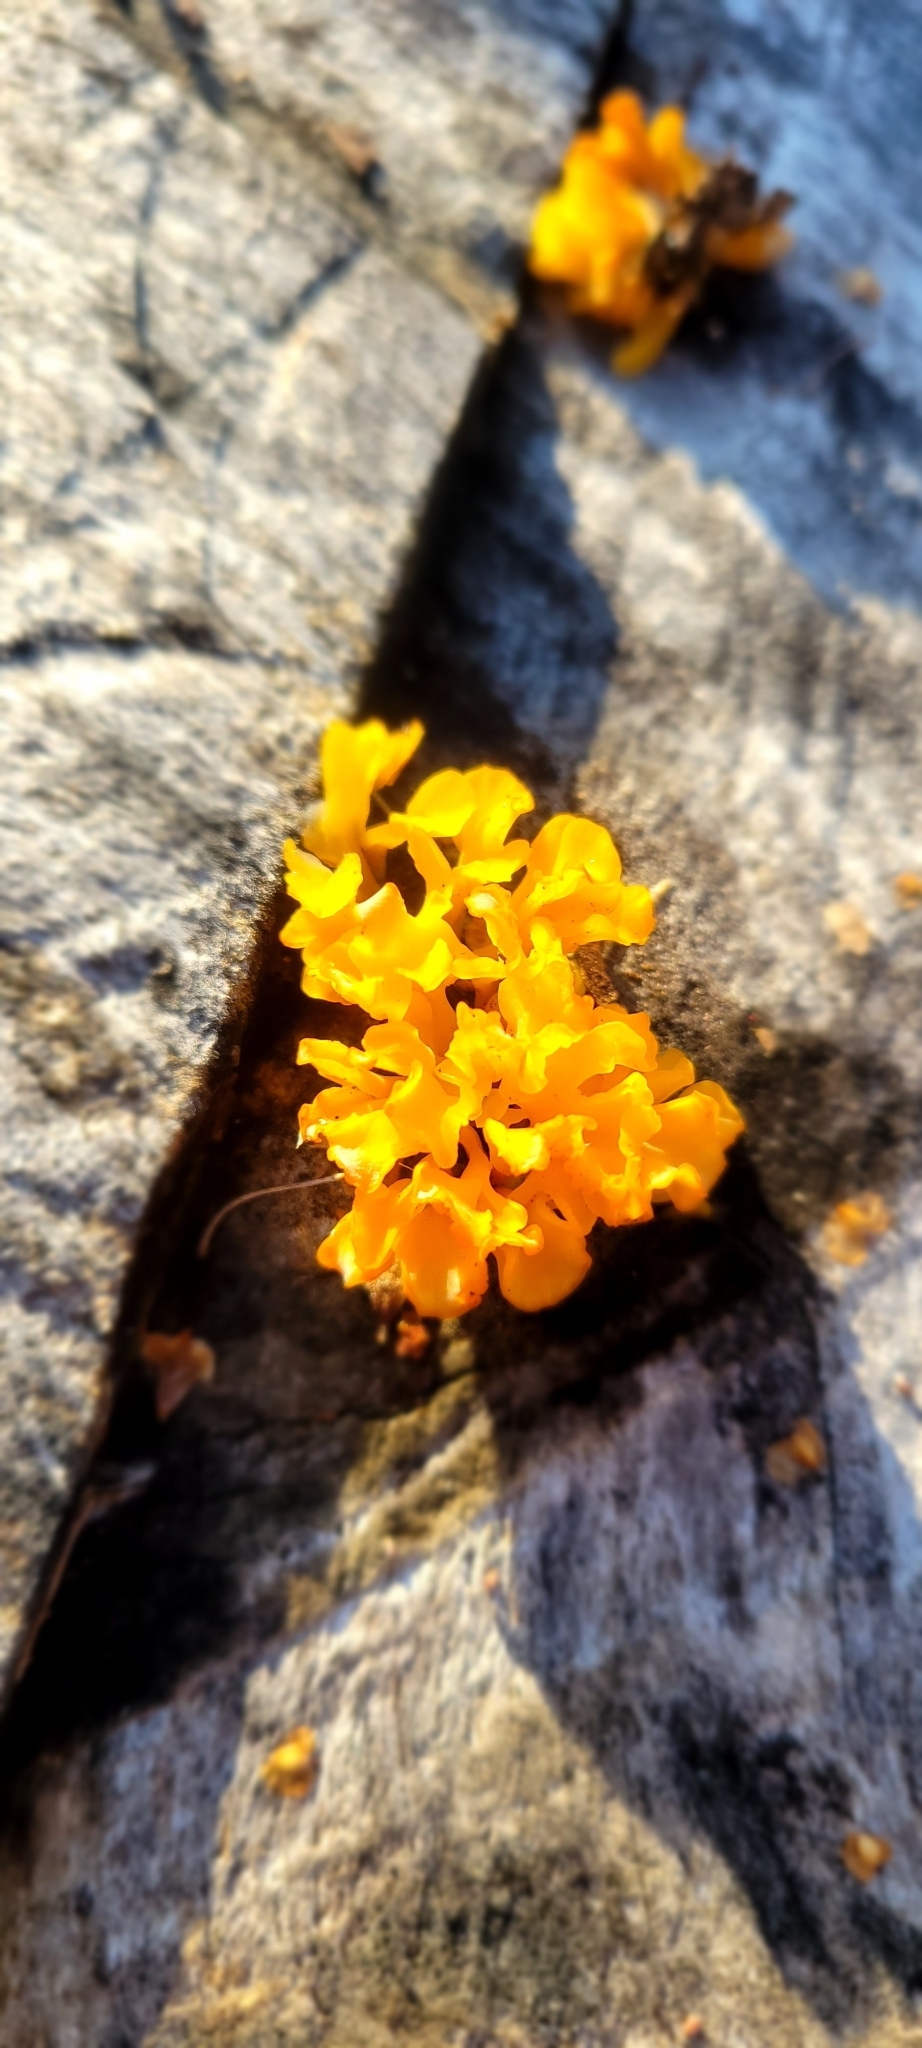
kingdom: Fungi
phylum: Basidiomycota
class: Dacrymycetes
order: Dacrymycetales
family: Dacrymycetaceae
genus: Dacrymyces
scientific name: Dacrymyces spathularius
